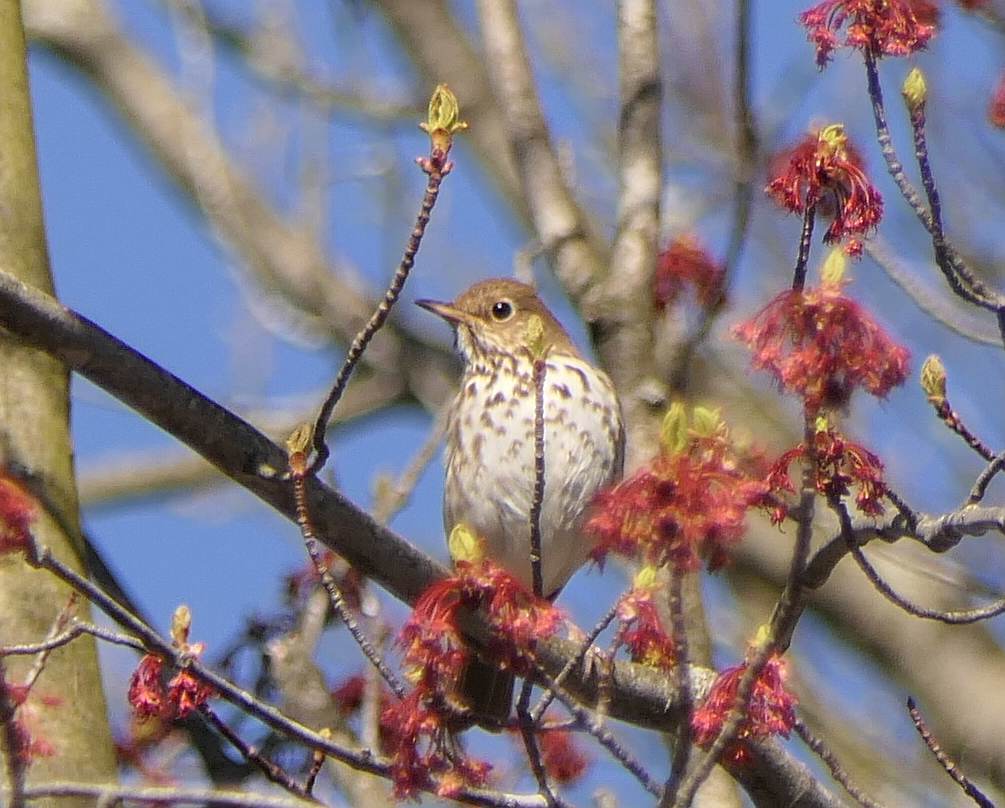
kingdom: Animalia
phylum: Chordata
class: Aves
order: Passeriformes
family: Turdidae
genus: Catharus
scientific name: Catharus guttatus
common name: Hermit thrush
